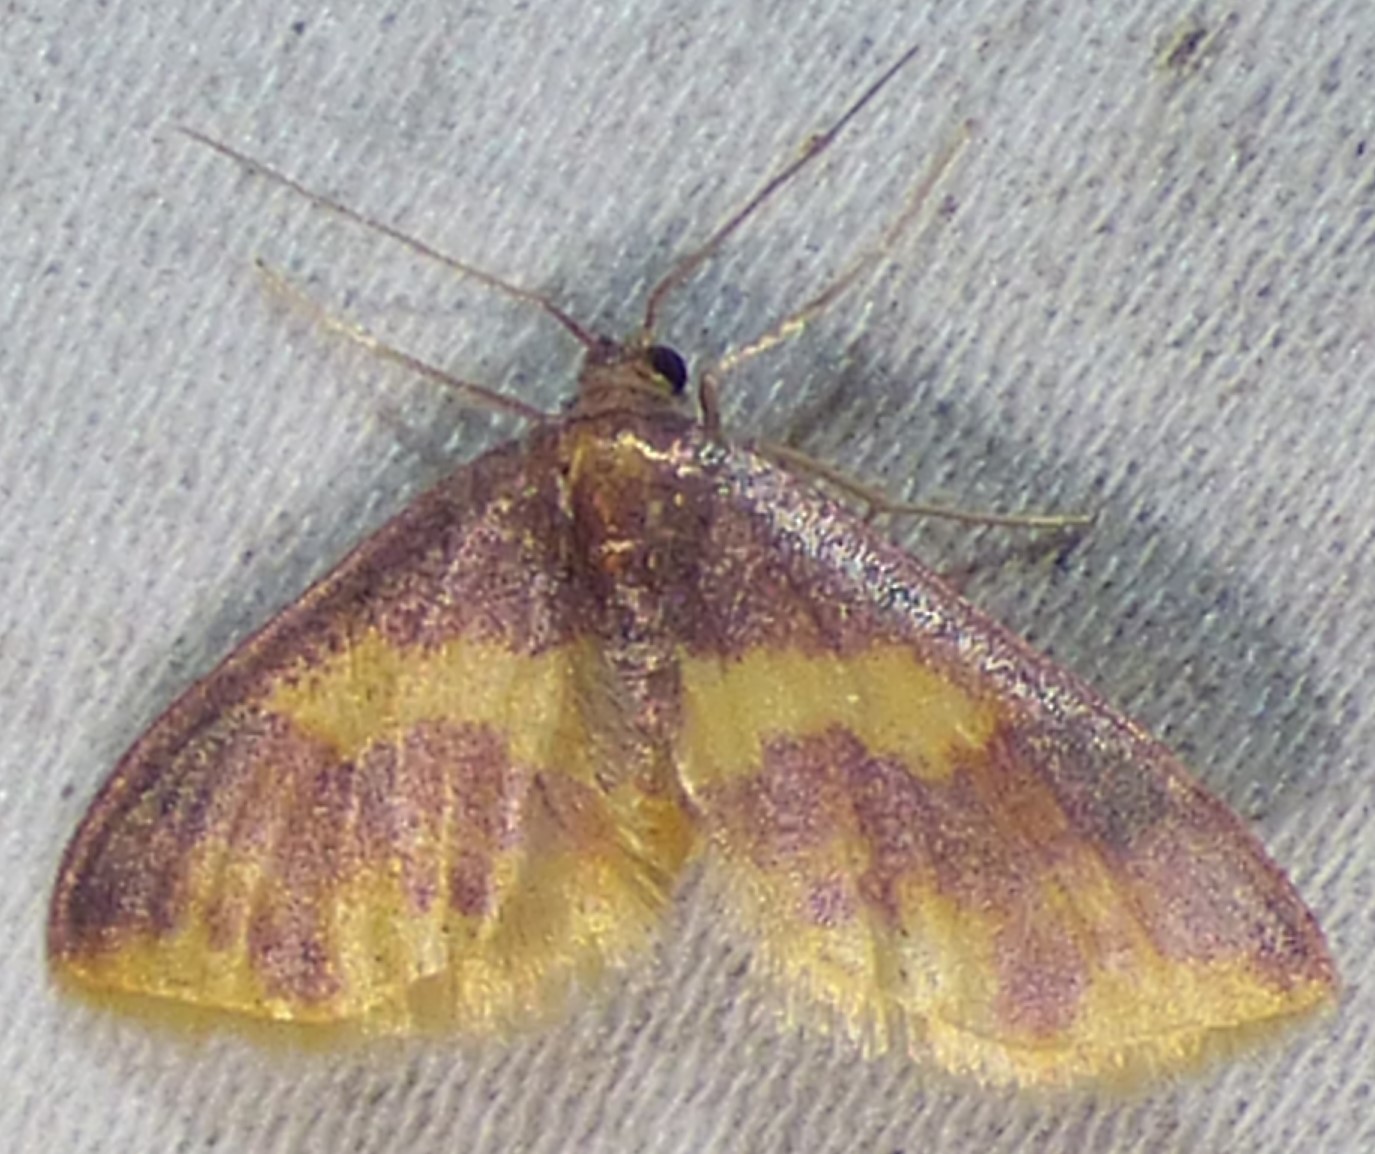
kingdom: Animalia
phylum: Arthropoda
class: Insecta
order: Lepidoptera
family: Geometridae
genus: Lophosis
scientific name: Lophosis labeculata
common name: Stained lophosis moth
